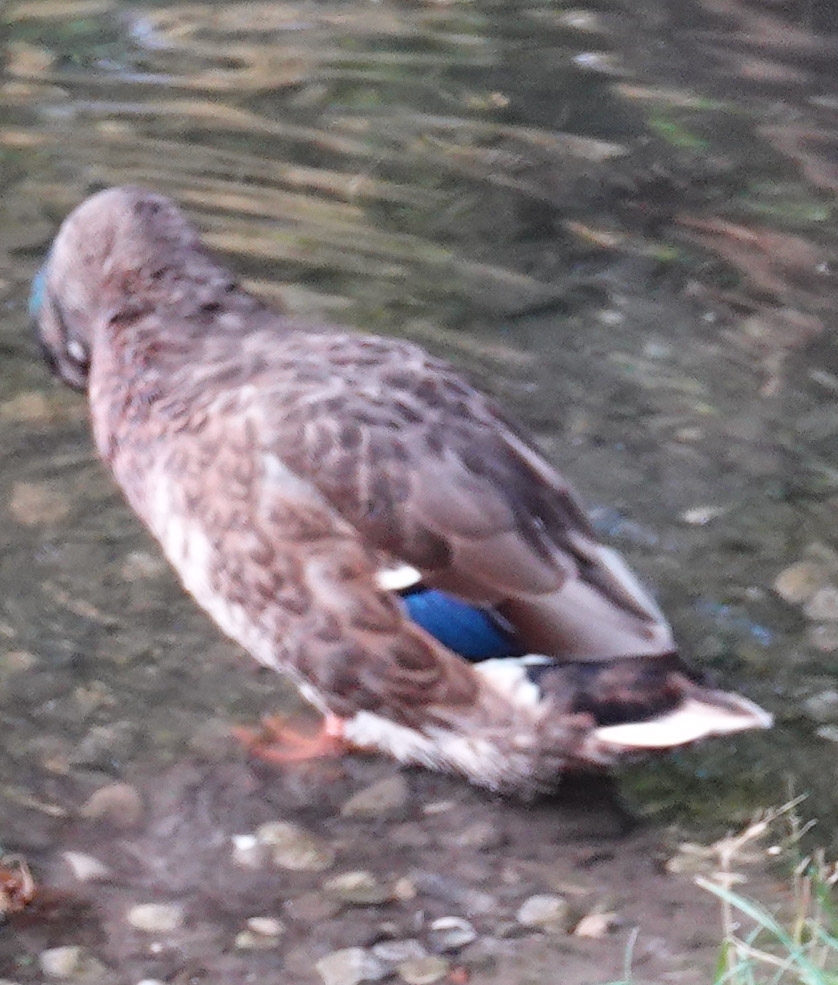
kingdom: Animalia
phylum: Chordata
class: Aves
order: Anseriformes
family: Anatidae
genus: Anas
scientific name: Anas platyrhynchos
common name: Mallard
